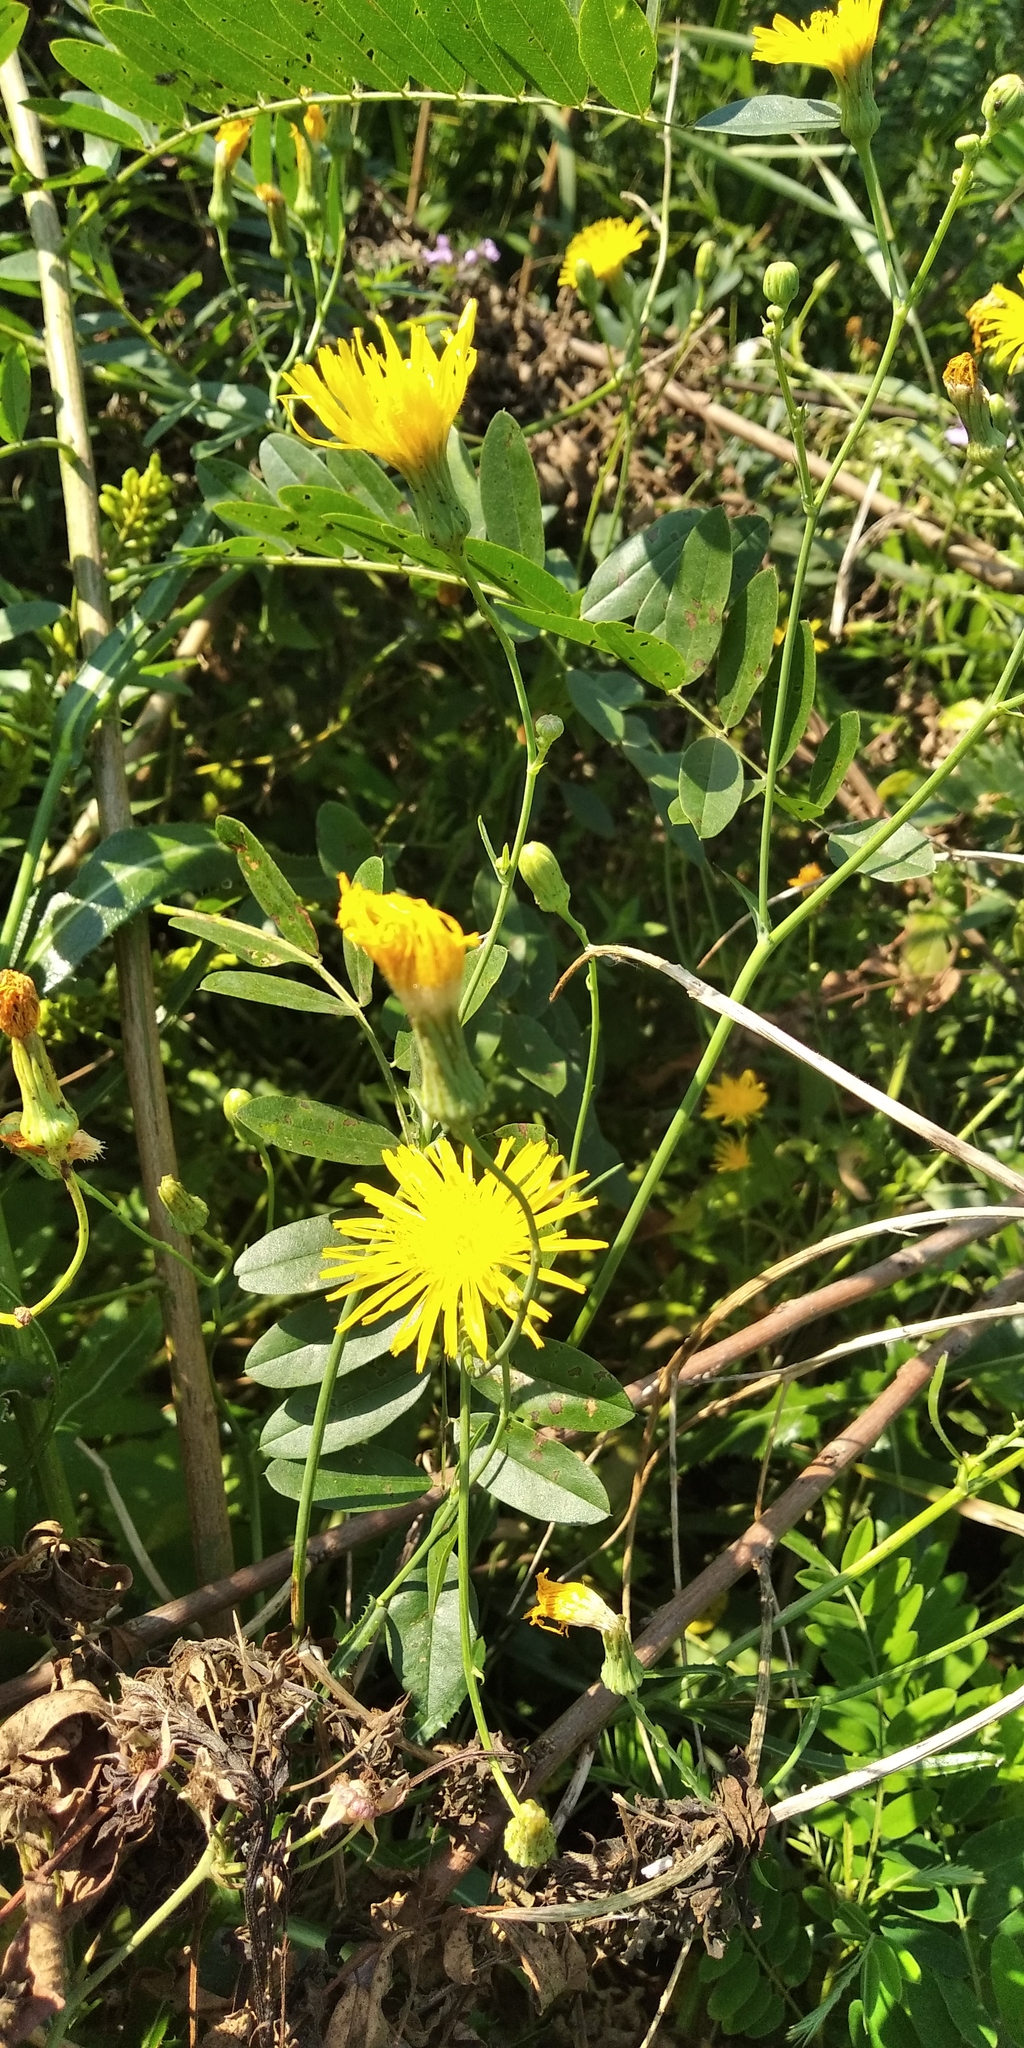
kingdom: Plantae
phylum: Tracheophyta
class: Magnoliopsida
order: Asterales
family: Asteraceae
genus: Sonchus
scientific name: Sonchus arvensis
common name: Perennial sow-thistle
